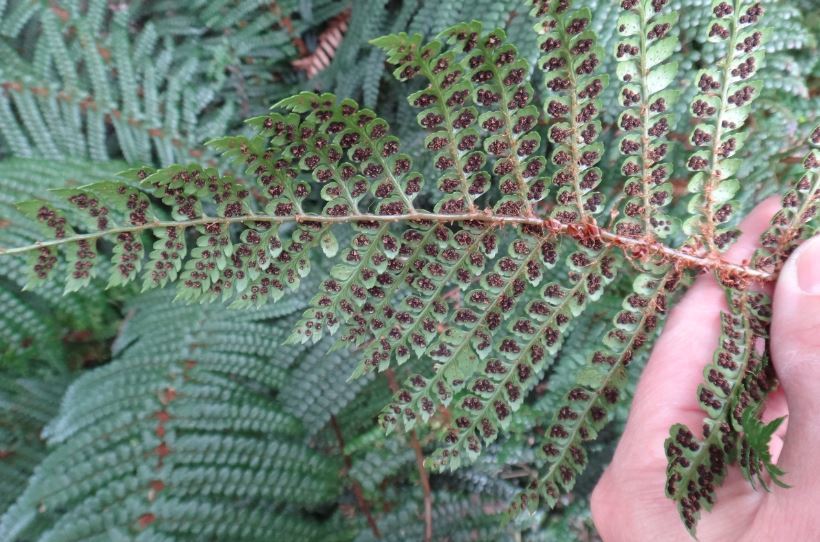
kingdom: Plantae
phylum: Tracheophyta
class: Polypodiopsida
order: Polypodiales
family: Dryopteridaceae
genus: Polystichum
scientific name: Polystichum vestitum
